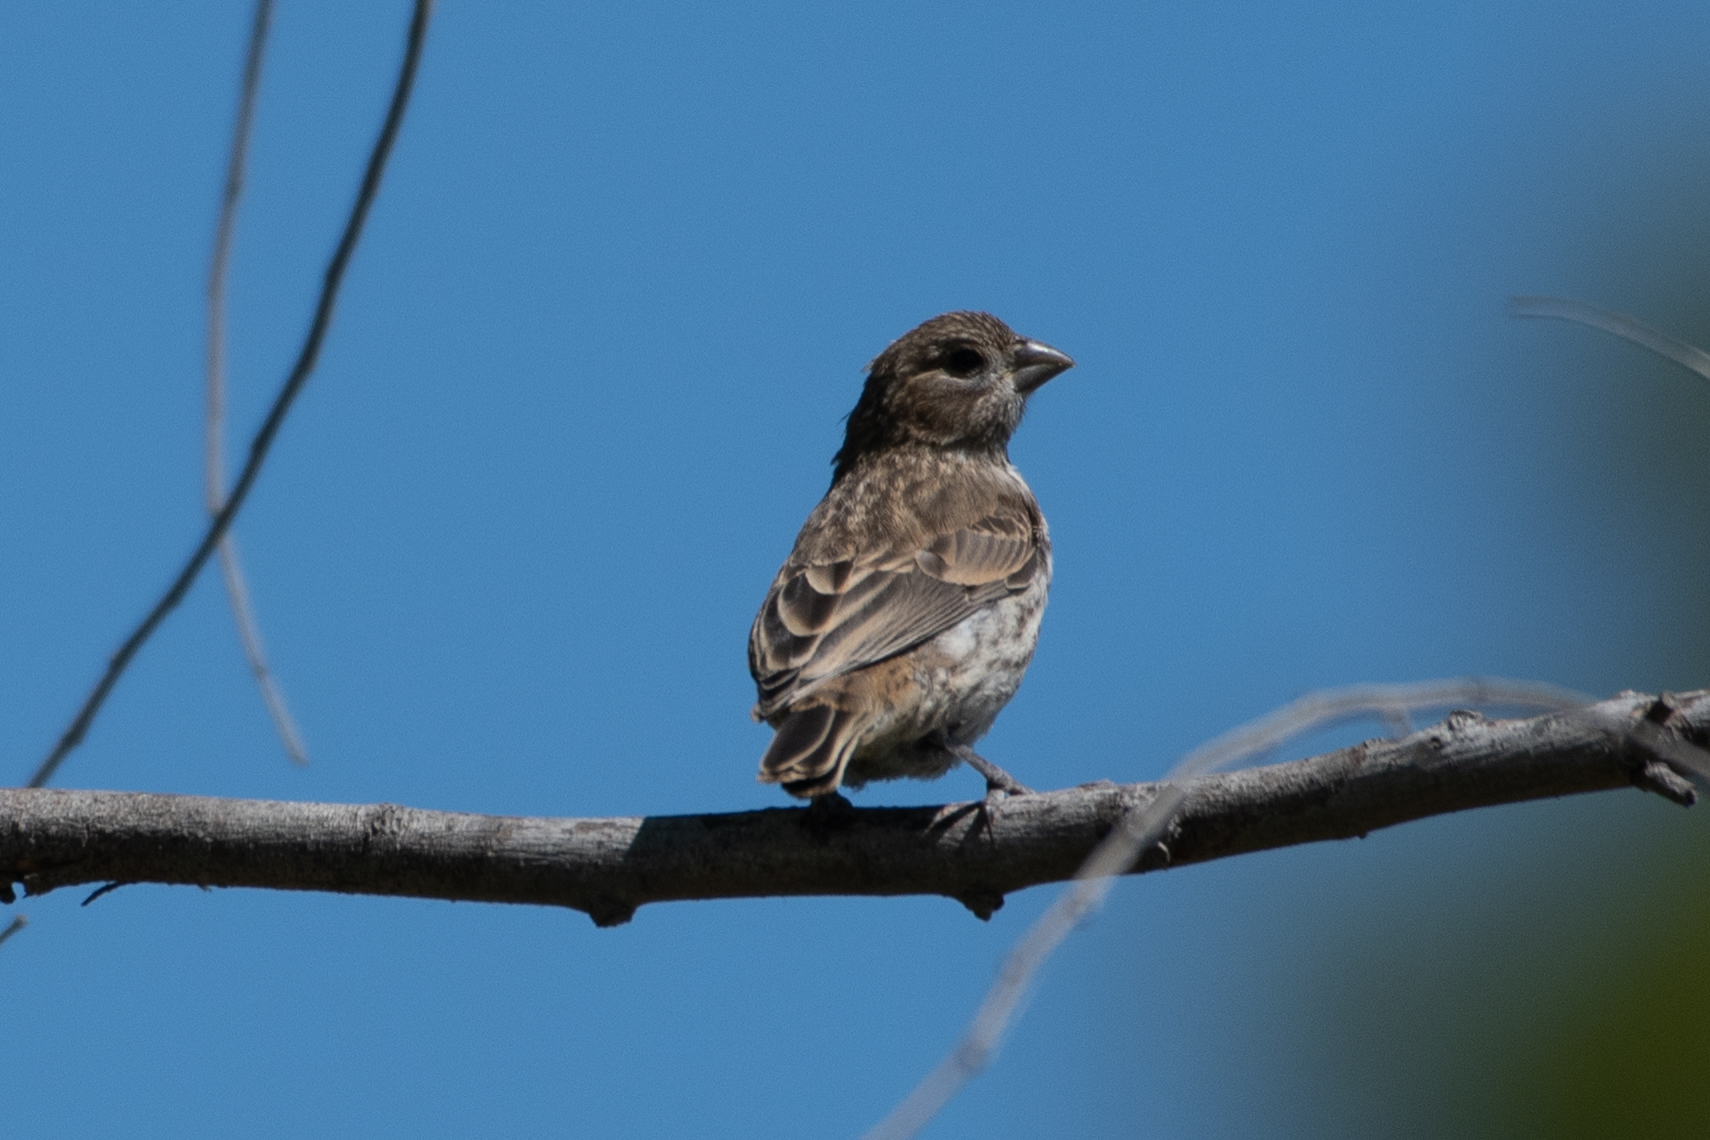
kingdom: Animalia
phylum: Chordata
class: Aves
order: Passeriformes
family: Fringillidae
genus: Haemorhous
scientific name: Haemorhous mexicanus
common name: House finch
